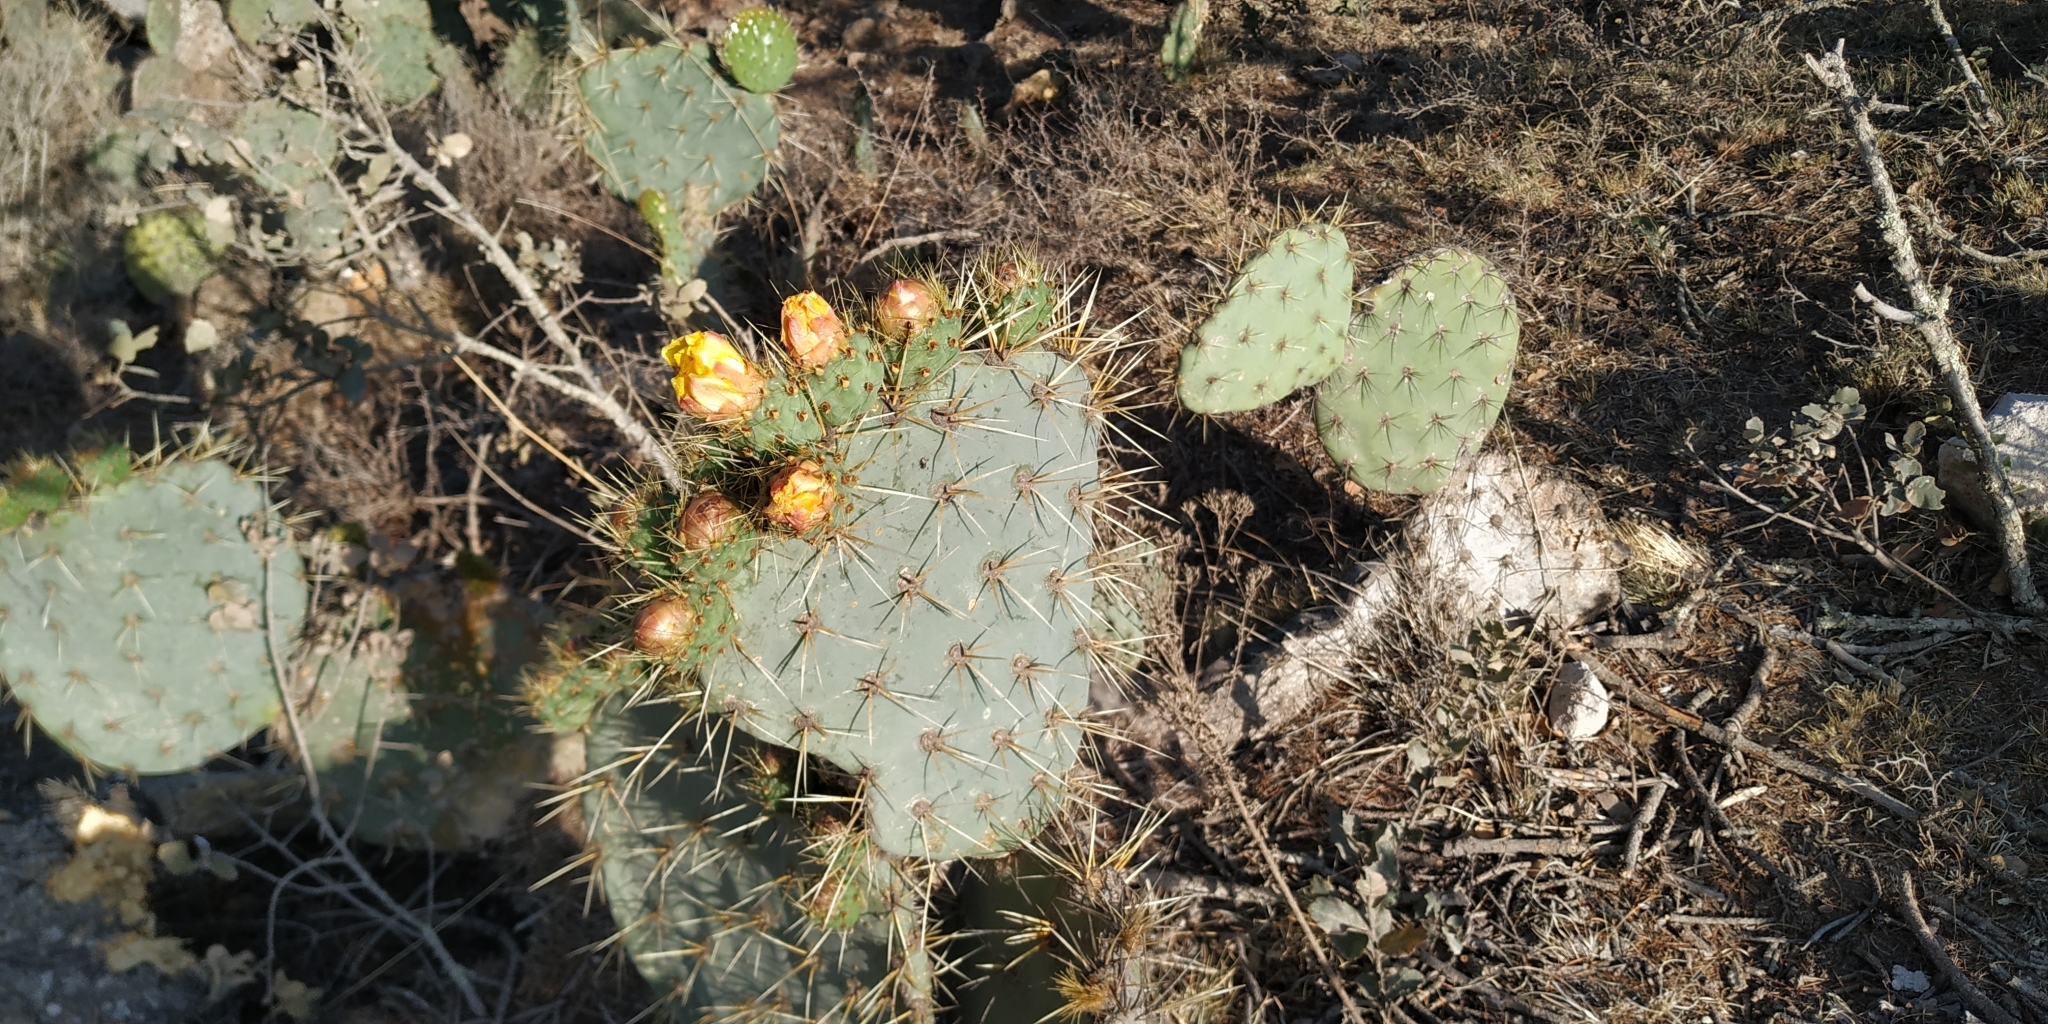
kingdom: Plantae
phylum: Tracheophyta
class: Magnoliopsida
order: Caryophyllales
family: Cactaceae
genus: Opuntia
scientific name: Opuntia robusta
